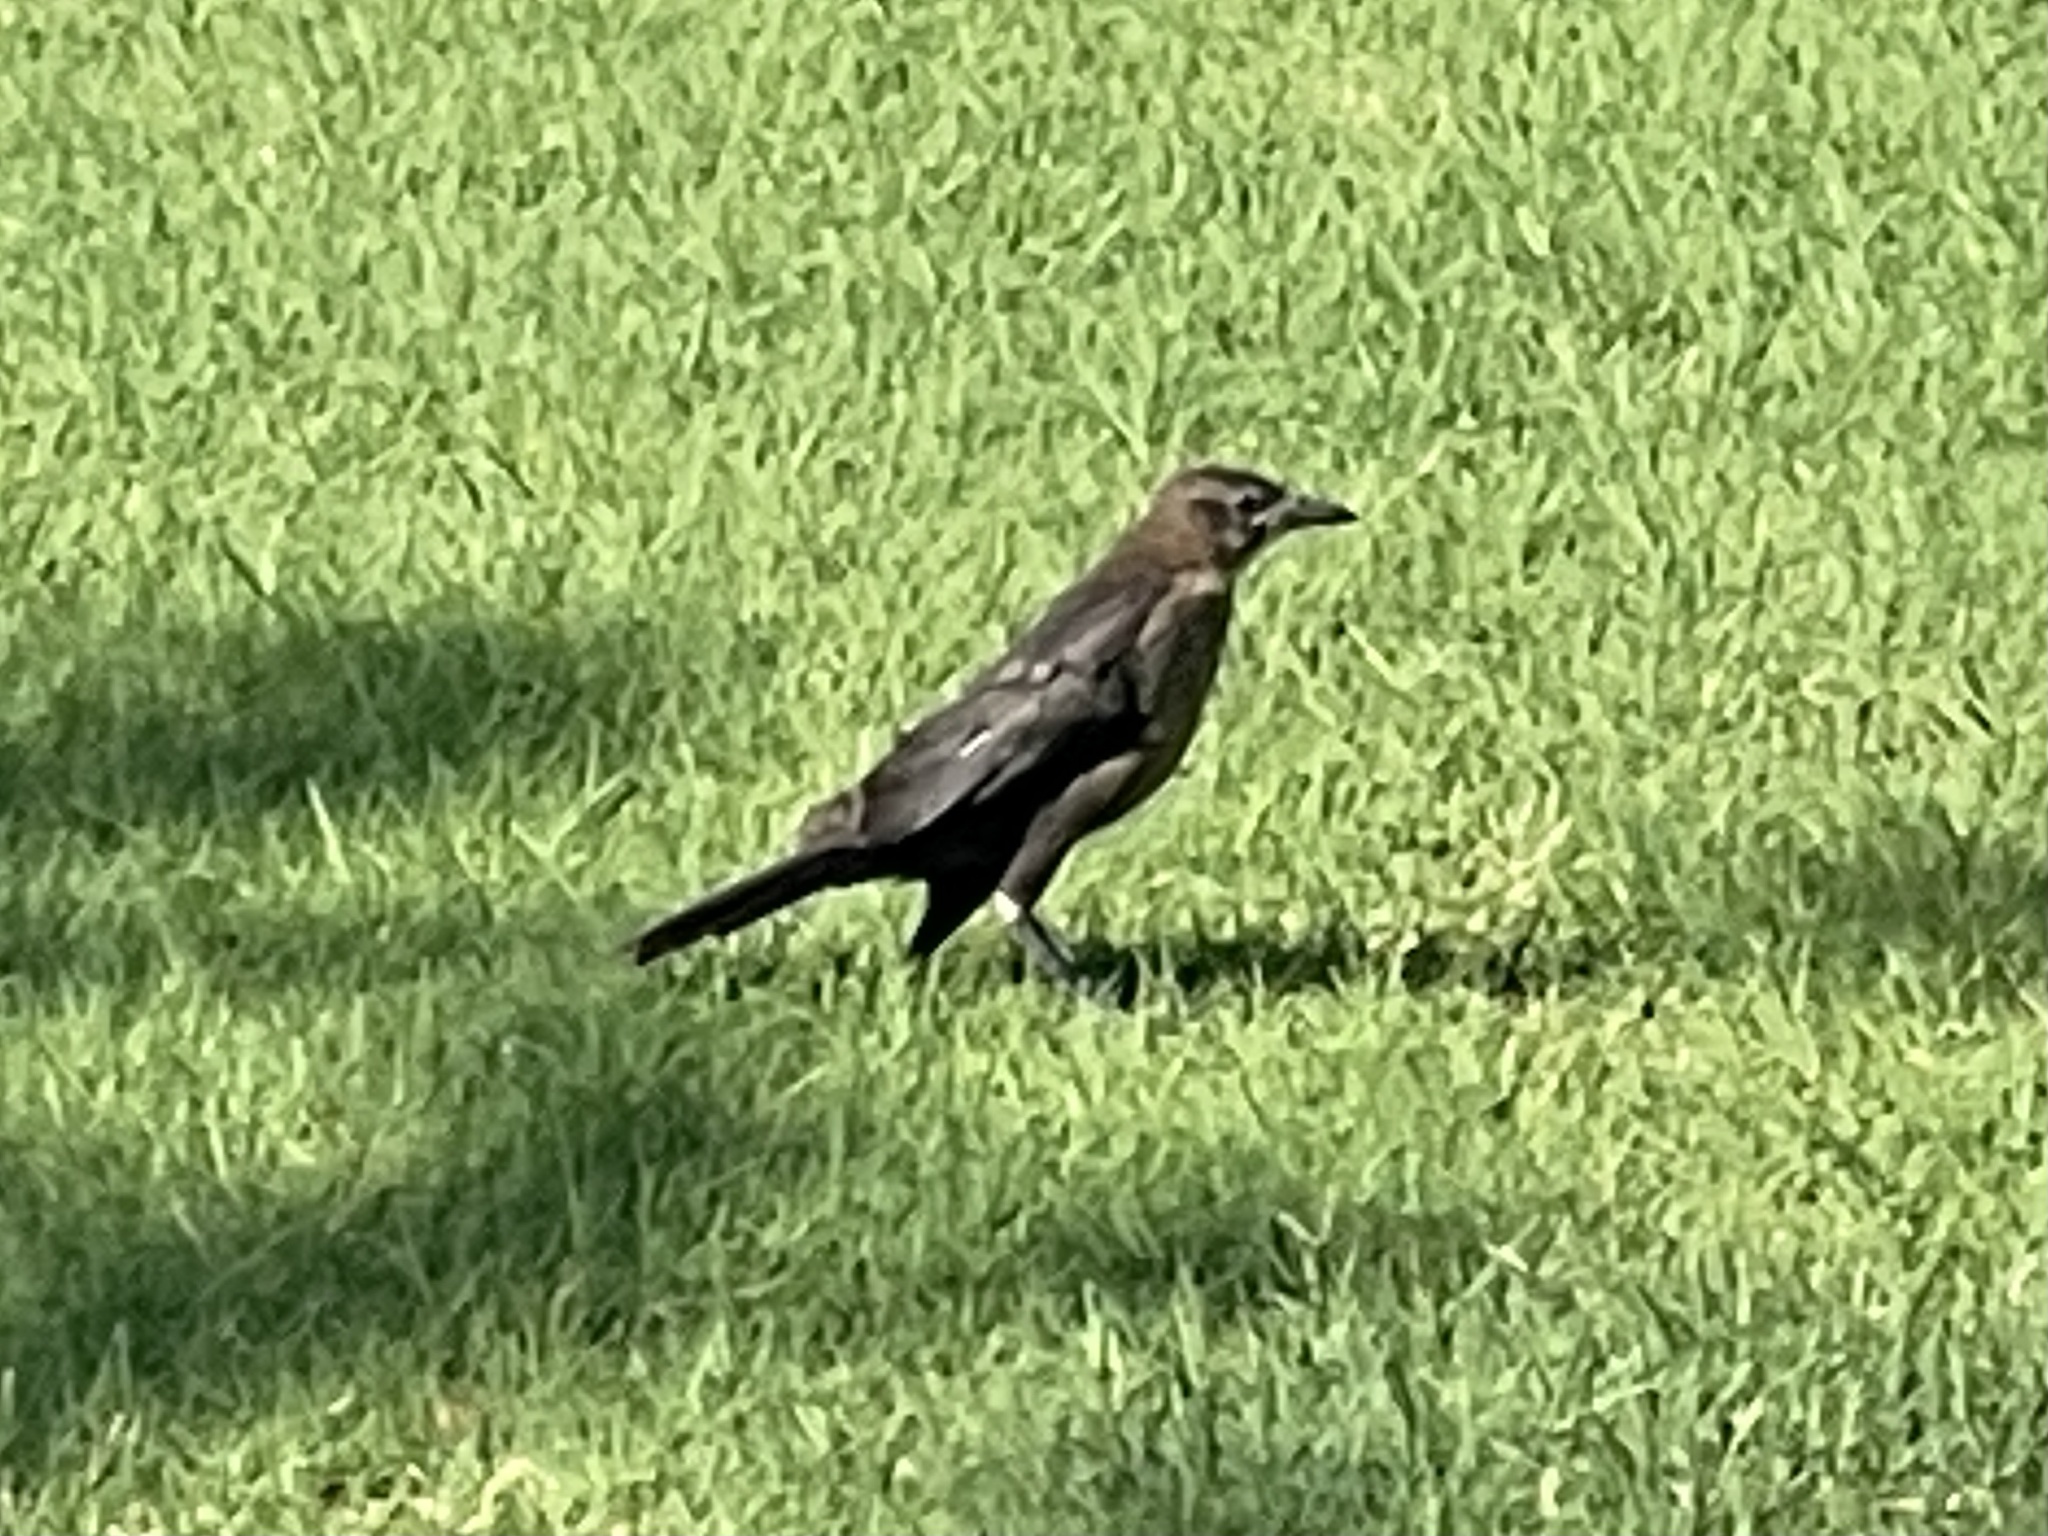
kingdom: Animalia
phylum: Chordata
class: Aves
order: Passeriformes
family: Icteridae
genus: Quiscalus
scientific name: Quiscalus mexicanus
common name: Great-tailed grackle
